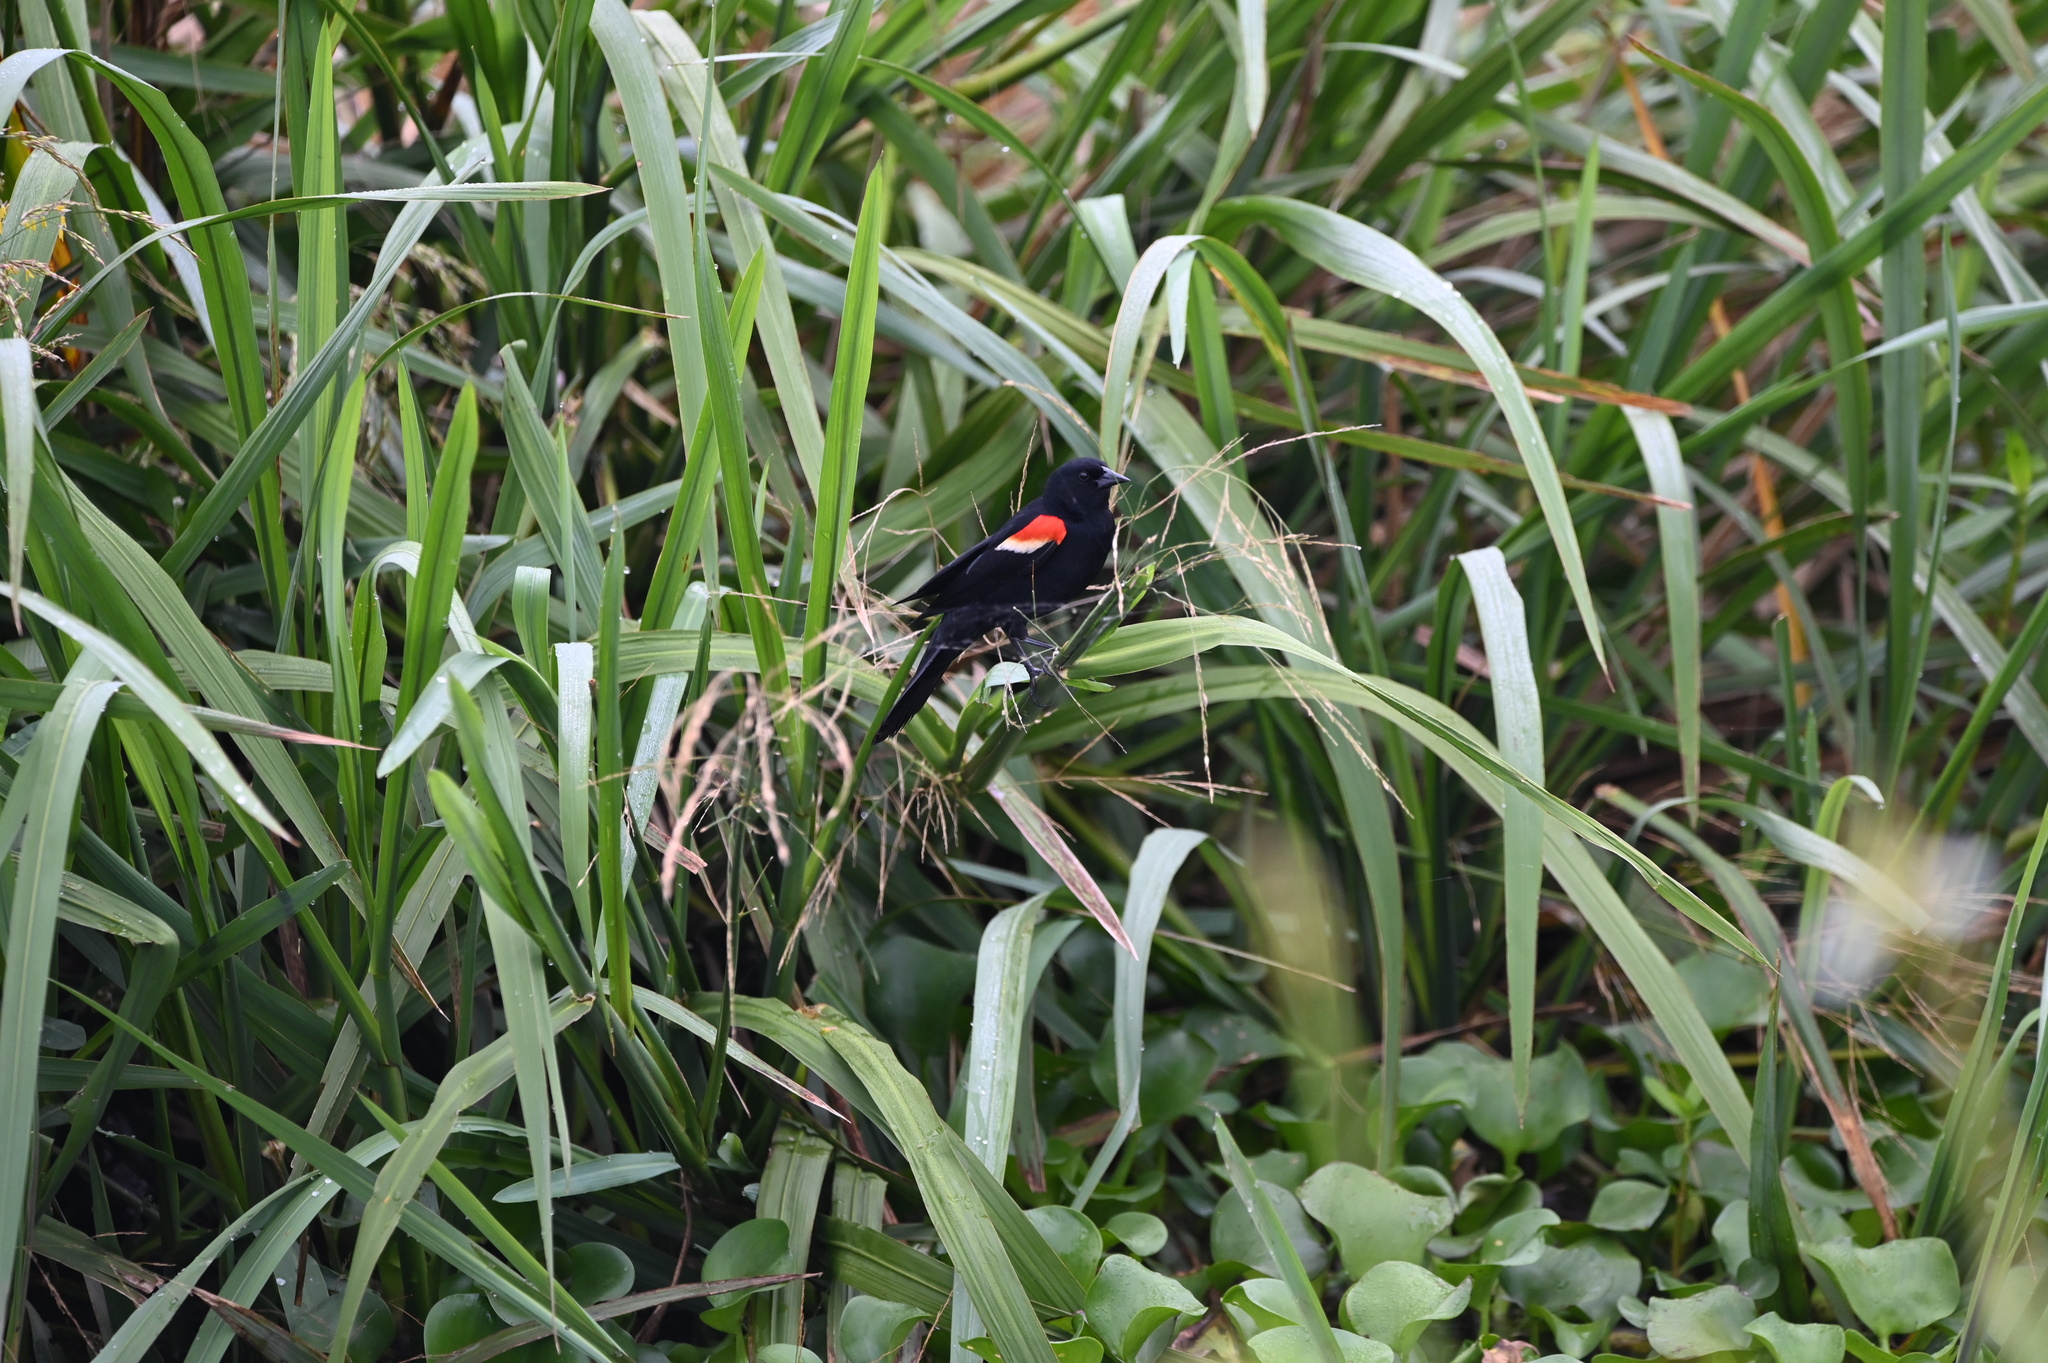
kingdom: Animalia
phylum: Chordata
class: Aves
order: Passeriformes
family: Icteridae
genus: Agelaius
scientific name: Agelaius phoeniceus
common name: Red-winged blackbird
